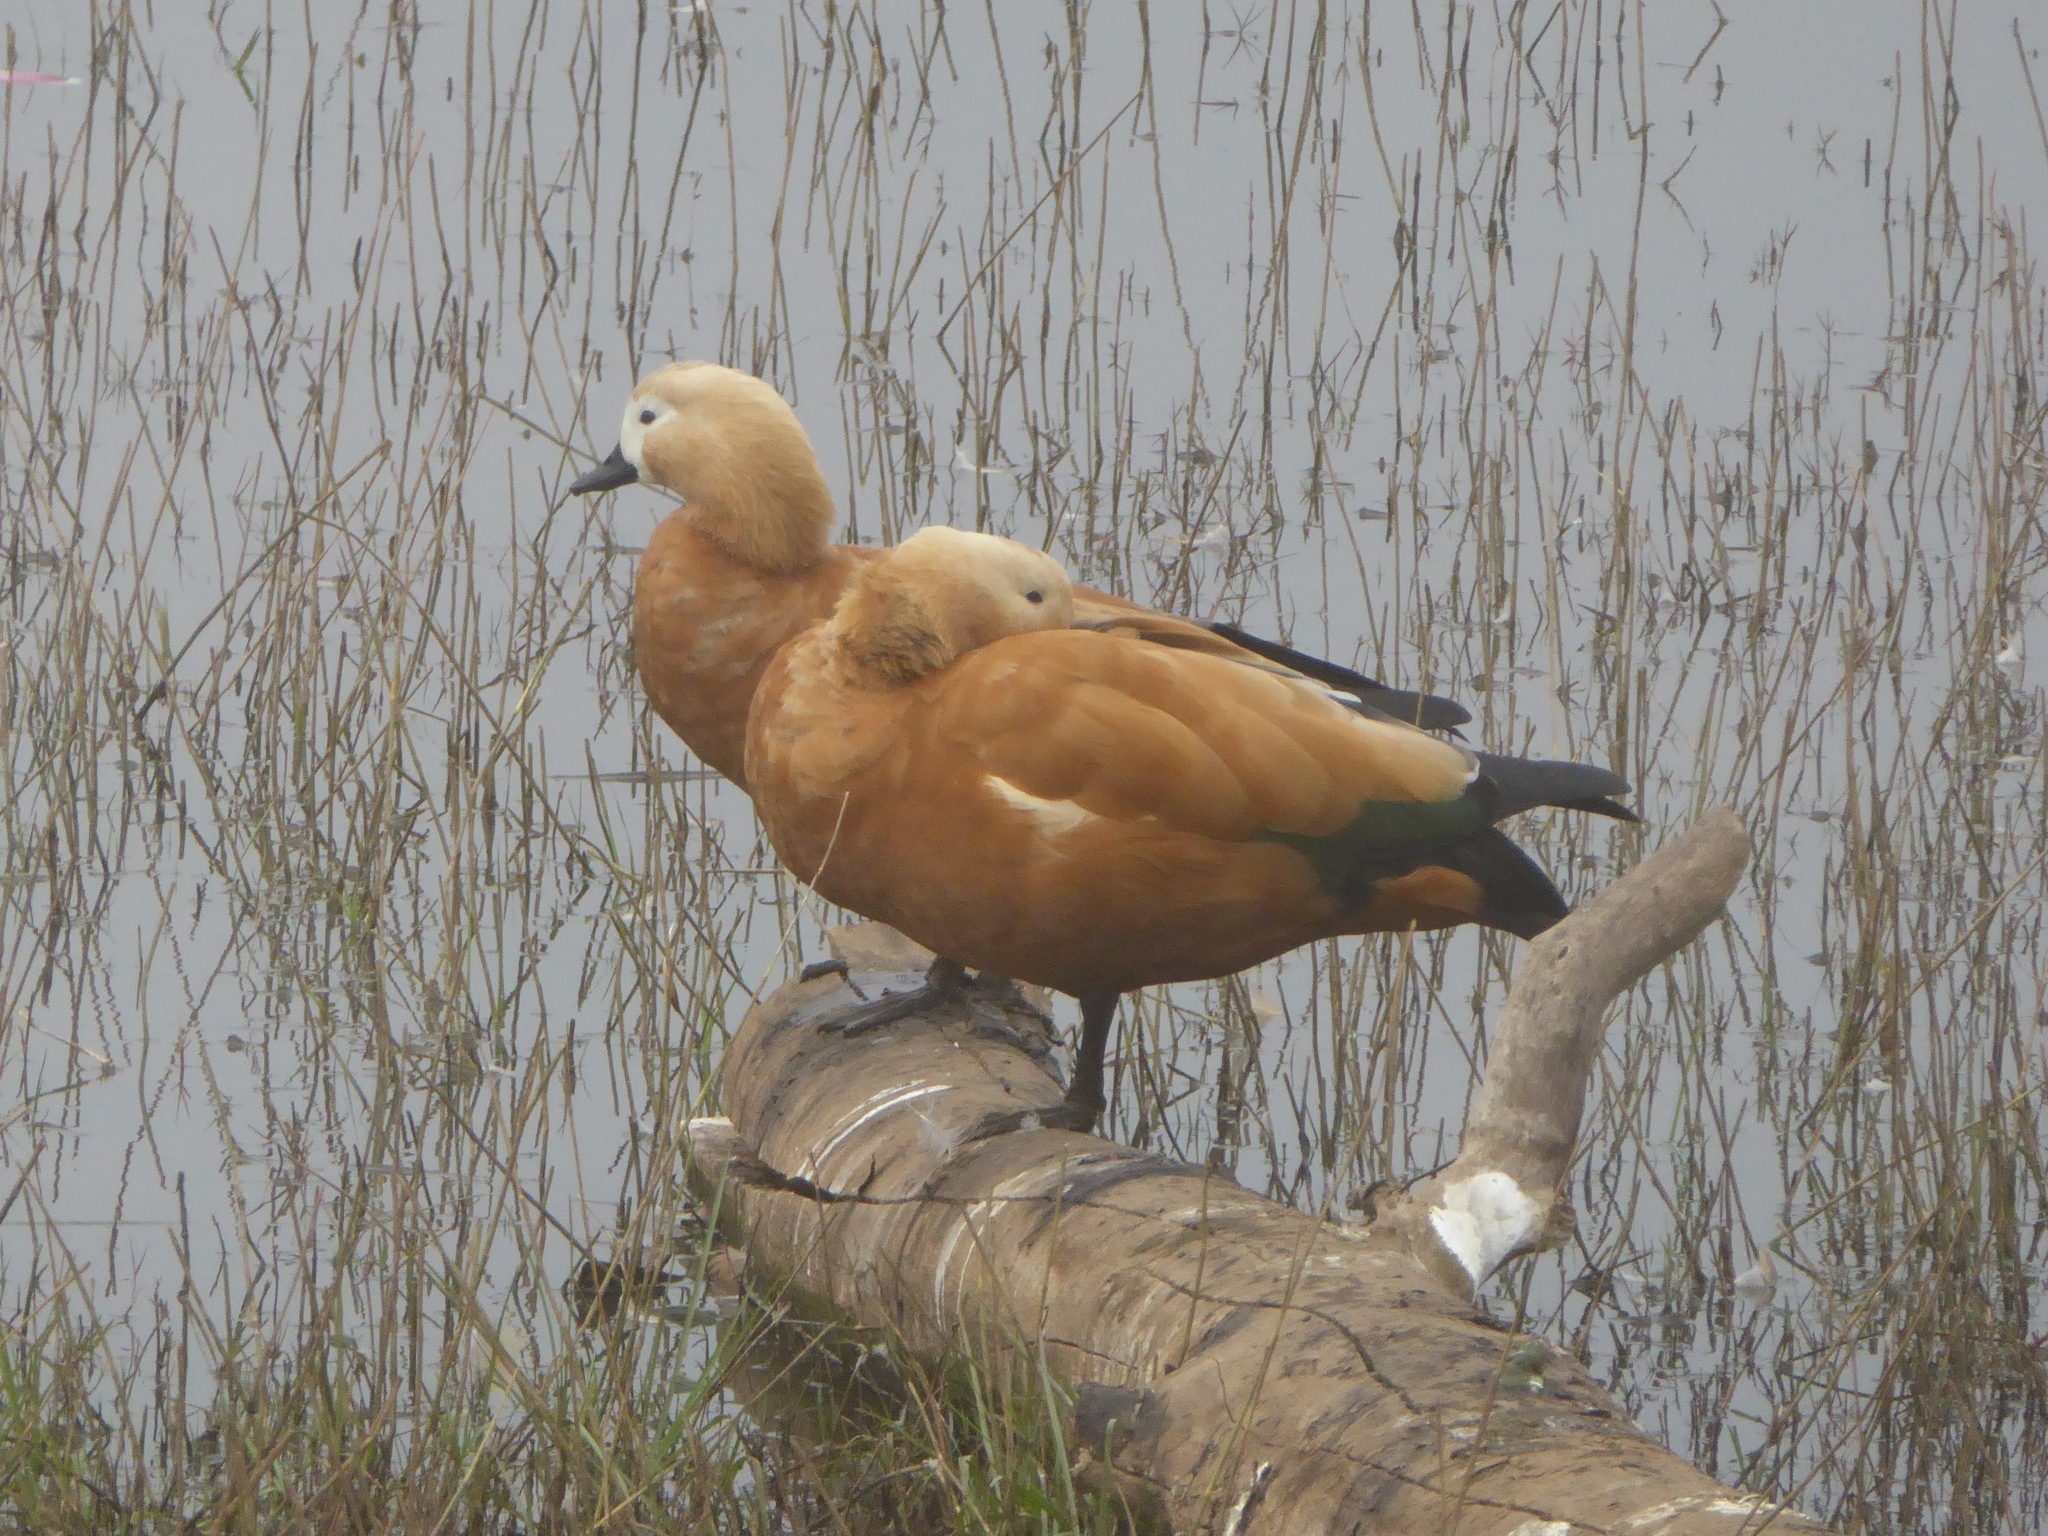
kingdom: Animalia
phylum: Chordata
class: Aves
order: Anseriformes
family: Anatidae
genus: Tadorna
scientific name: Tadorna ferruginea
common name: Ruddy shelduck
